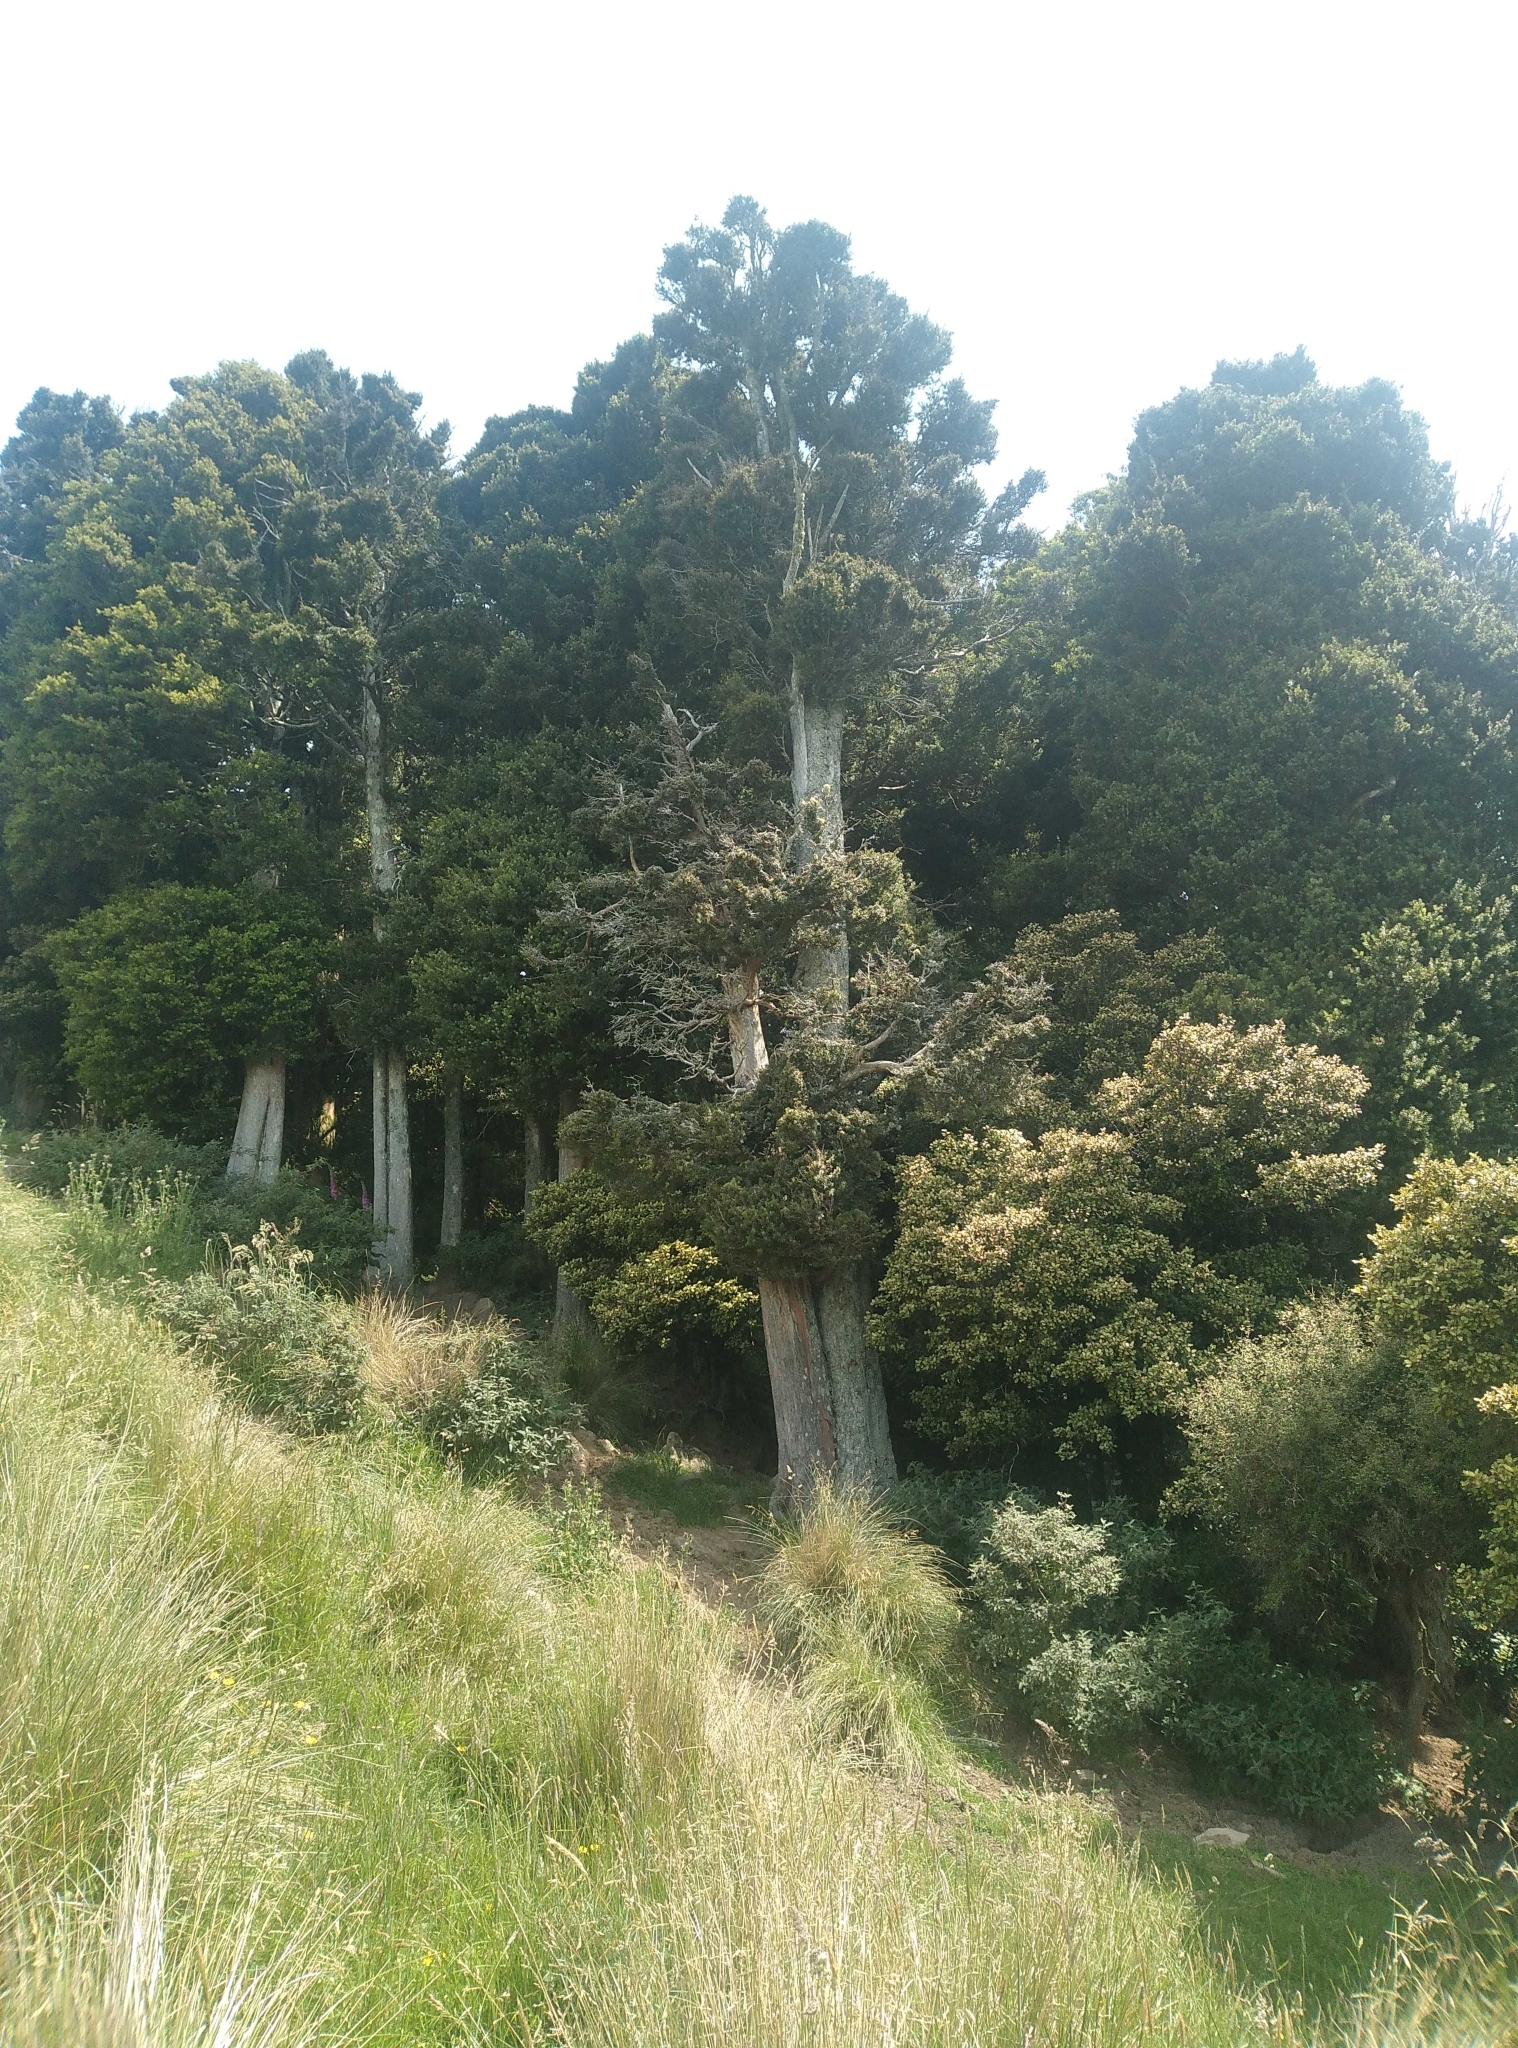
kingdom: Plantae
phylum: Tracheophyta
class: Pinopsida
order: Pinales
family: Podocarpaceae
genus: Podocarpus
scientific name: Podocarpus laetus
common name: Hall's totara
